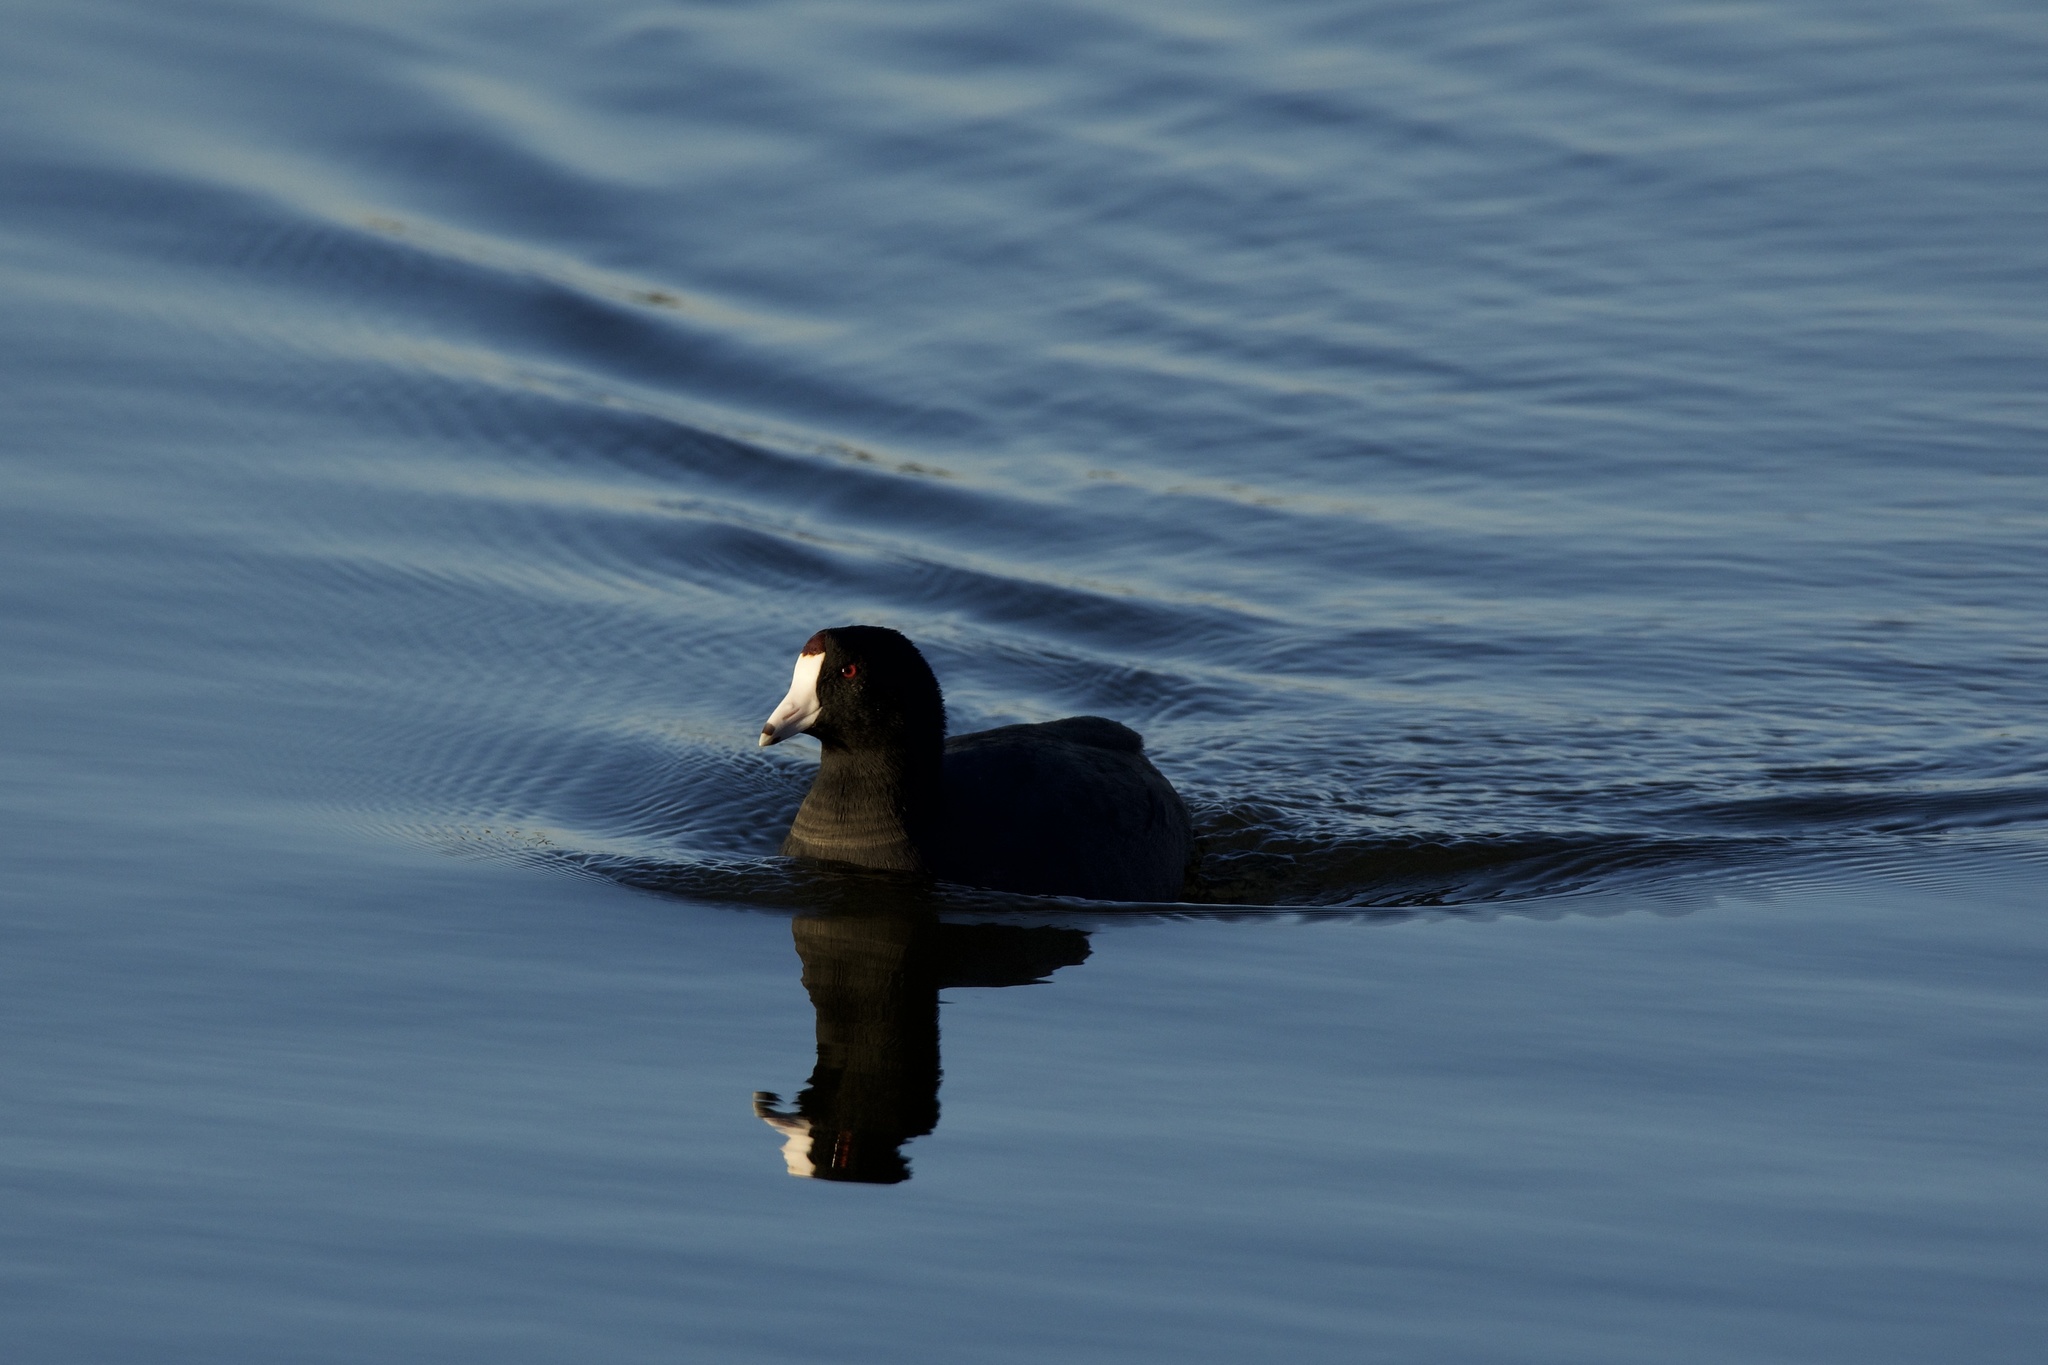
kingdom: Animalia
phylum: Chordata
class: Aves
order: Gruiformes
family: Rallidae
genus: Fulica
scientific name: Fulica americana
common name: American coot
